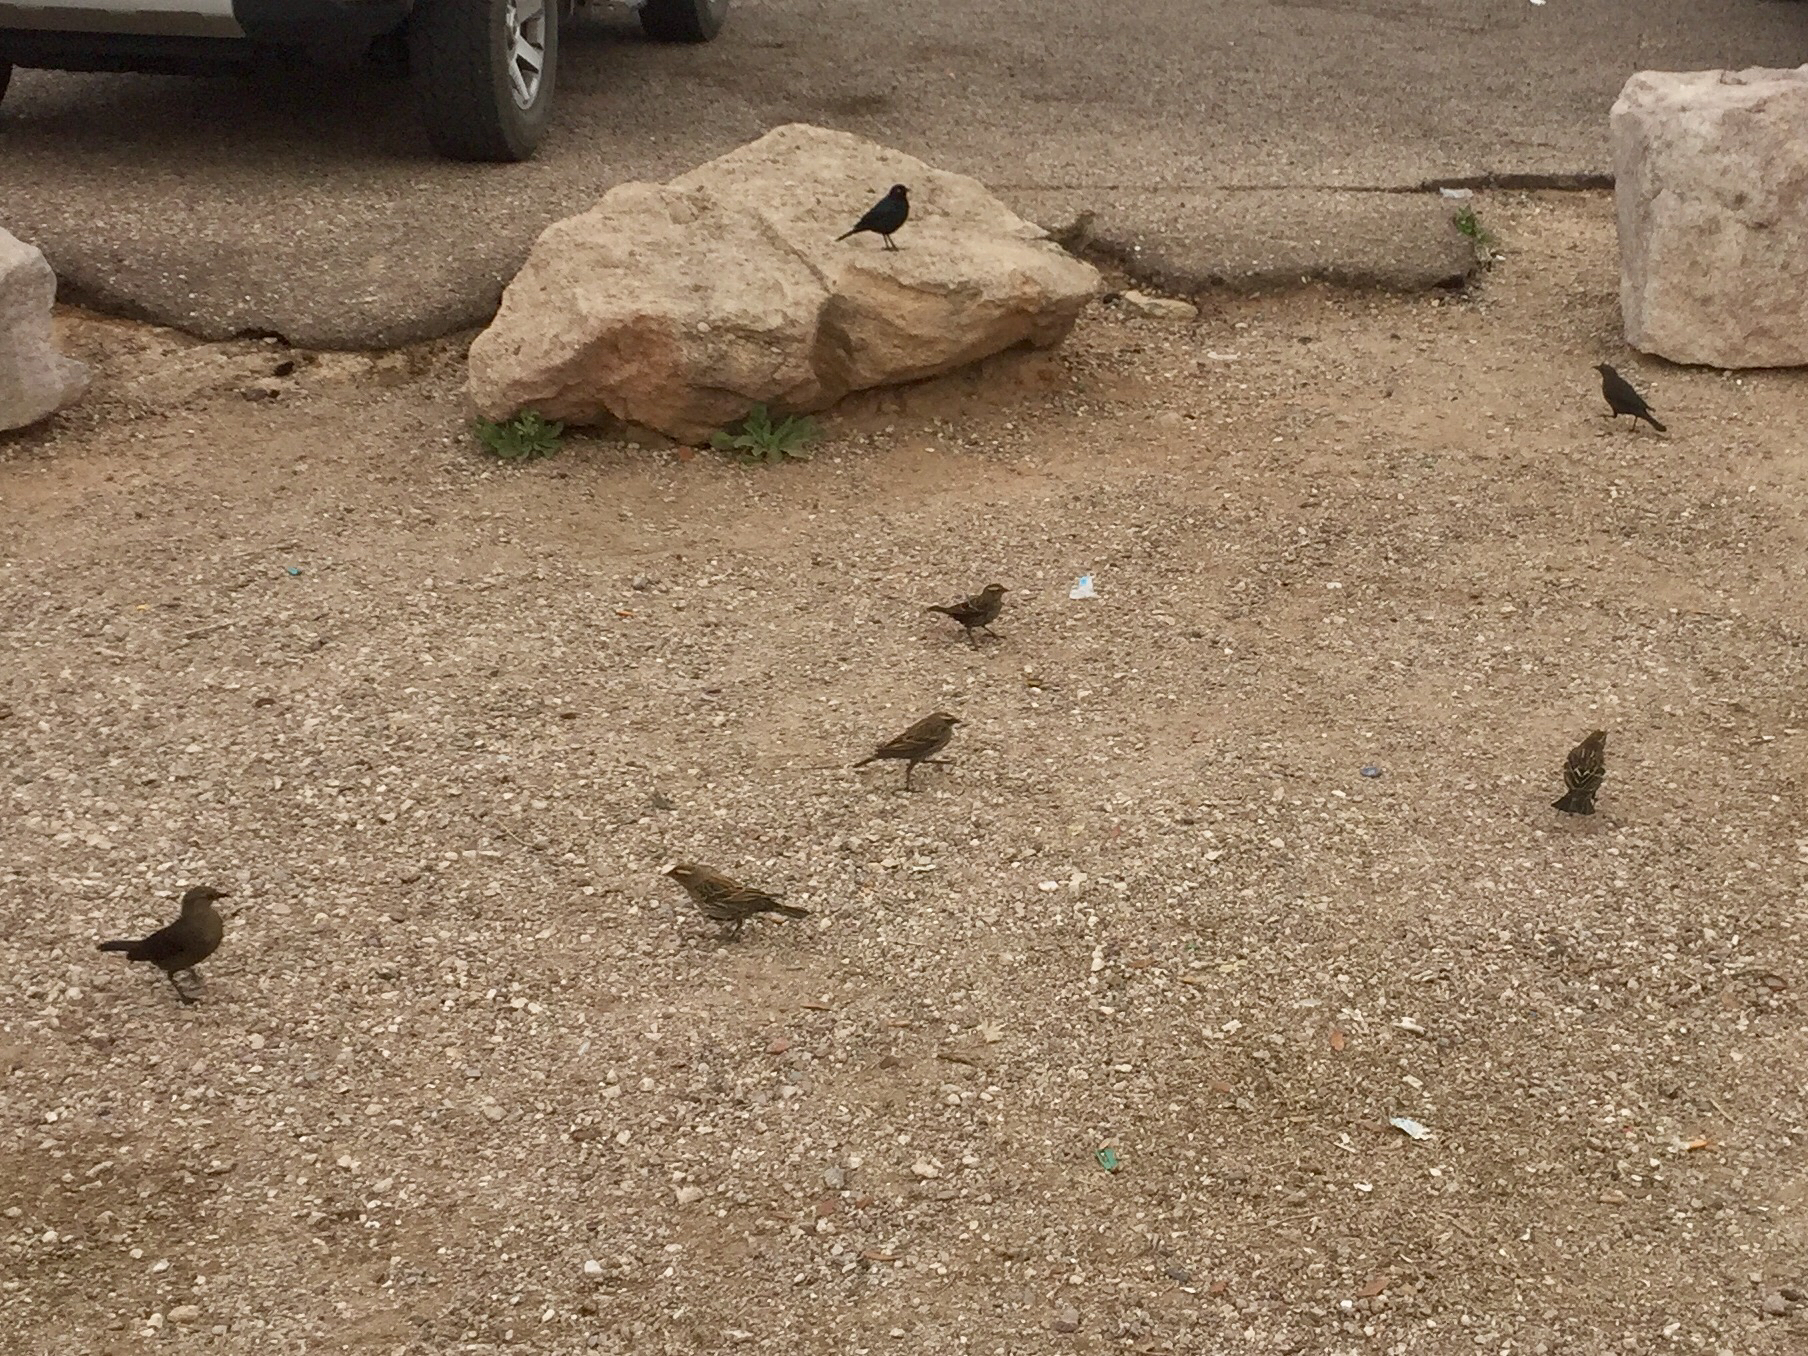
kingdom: Animalia
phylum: Chordata
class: Aves
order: Passeriformes
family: Icteridae
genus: Euphagus
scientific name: Euphagus cyanocephalus
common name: Brewer's blackbird
